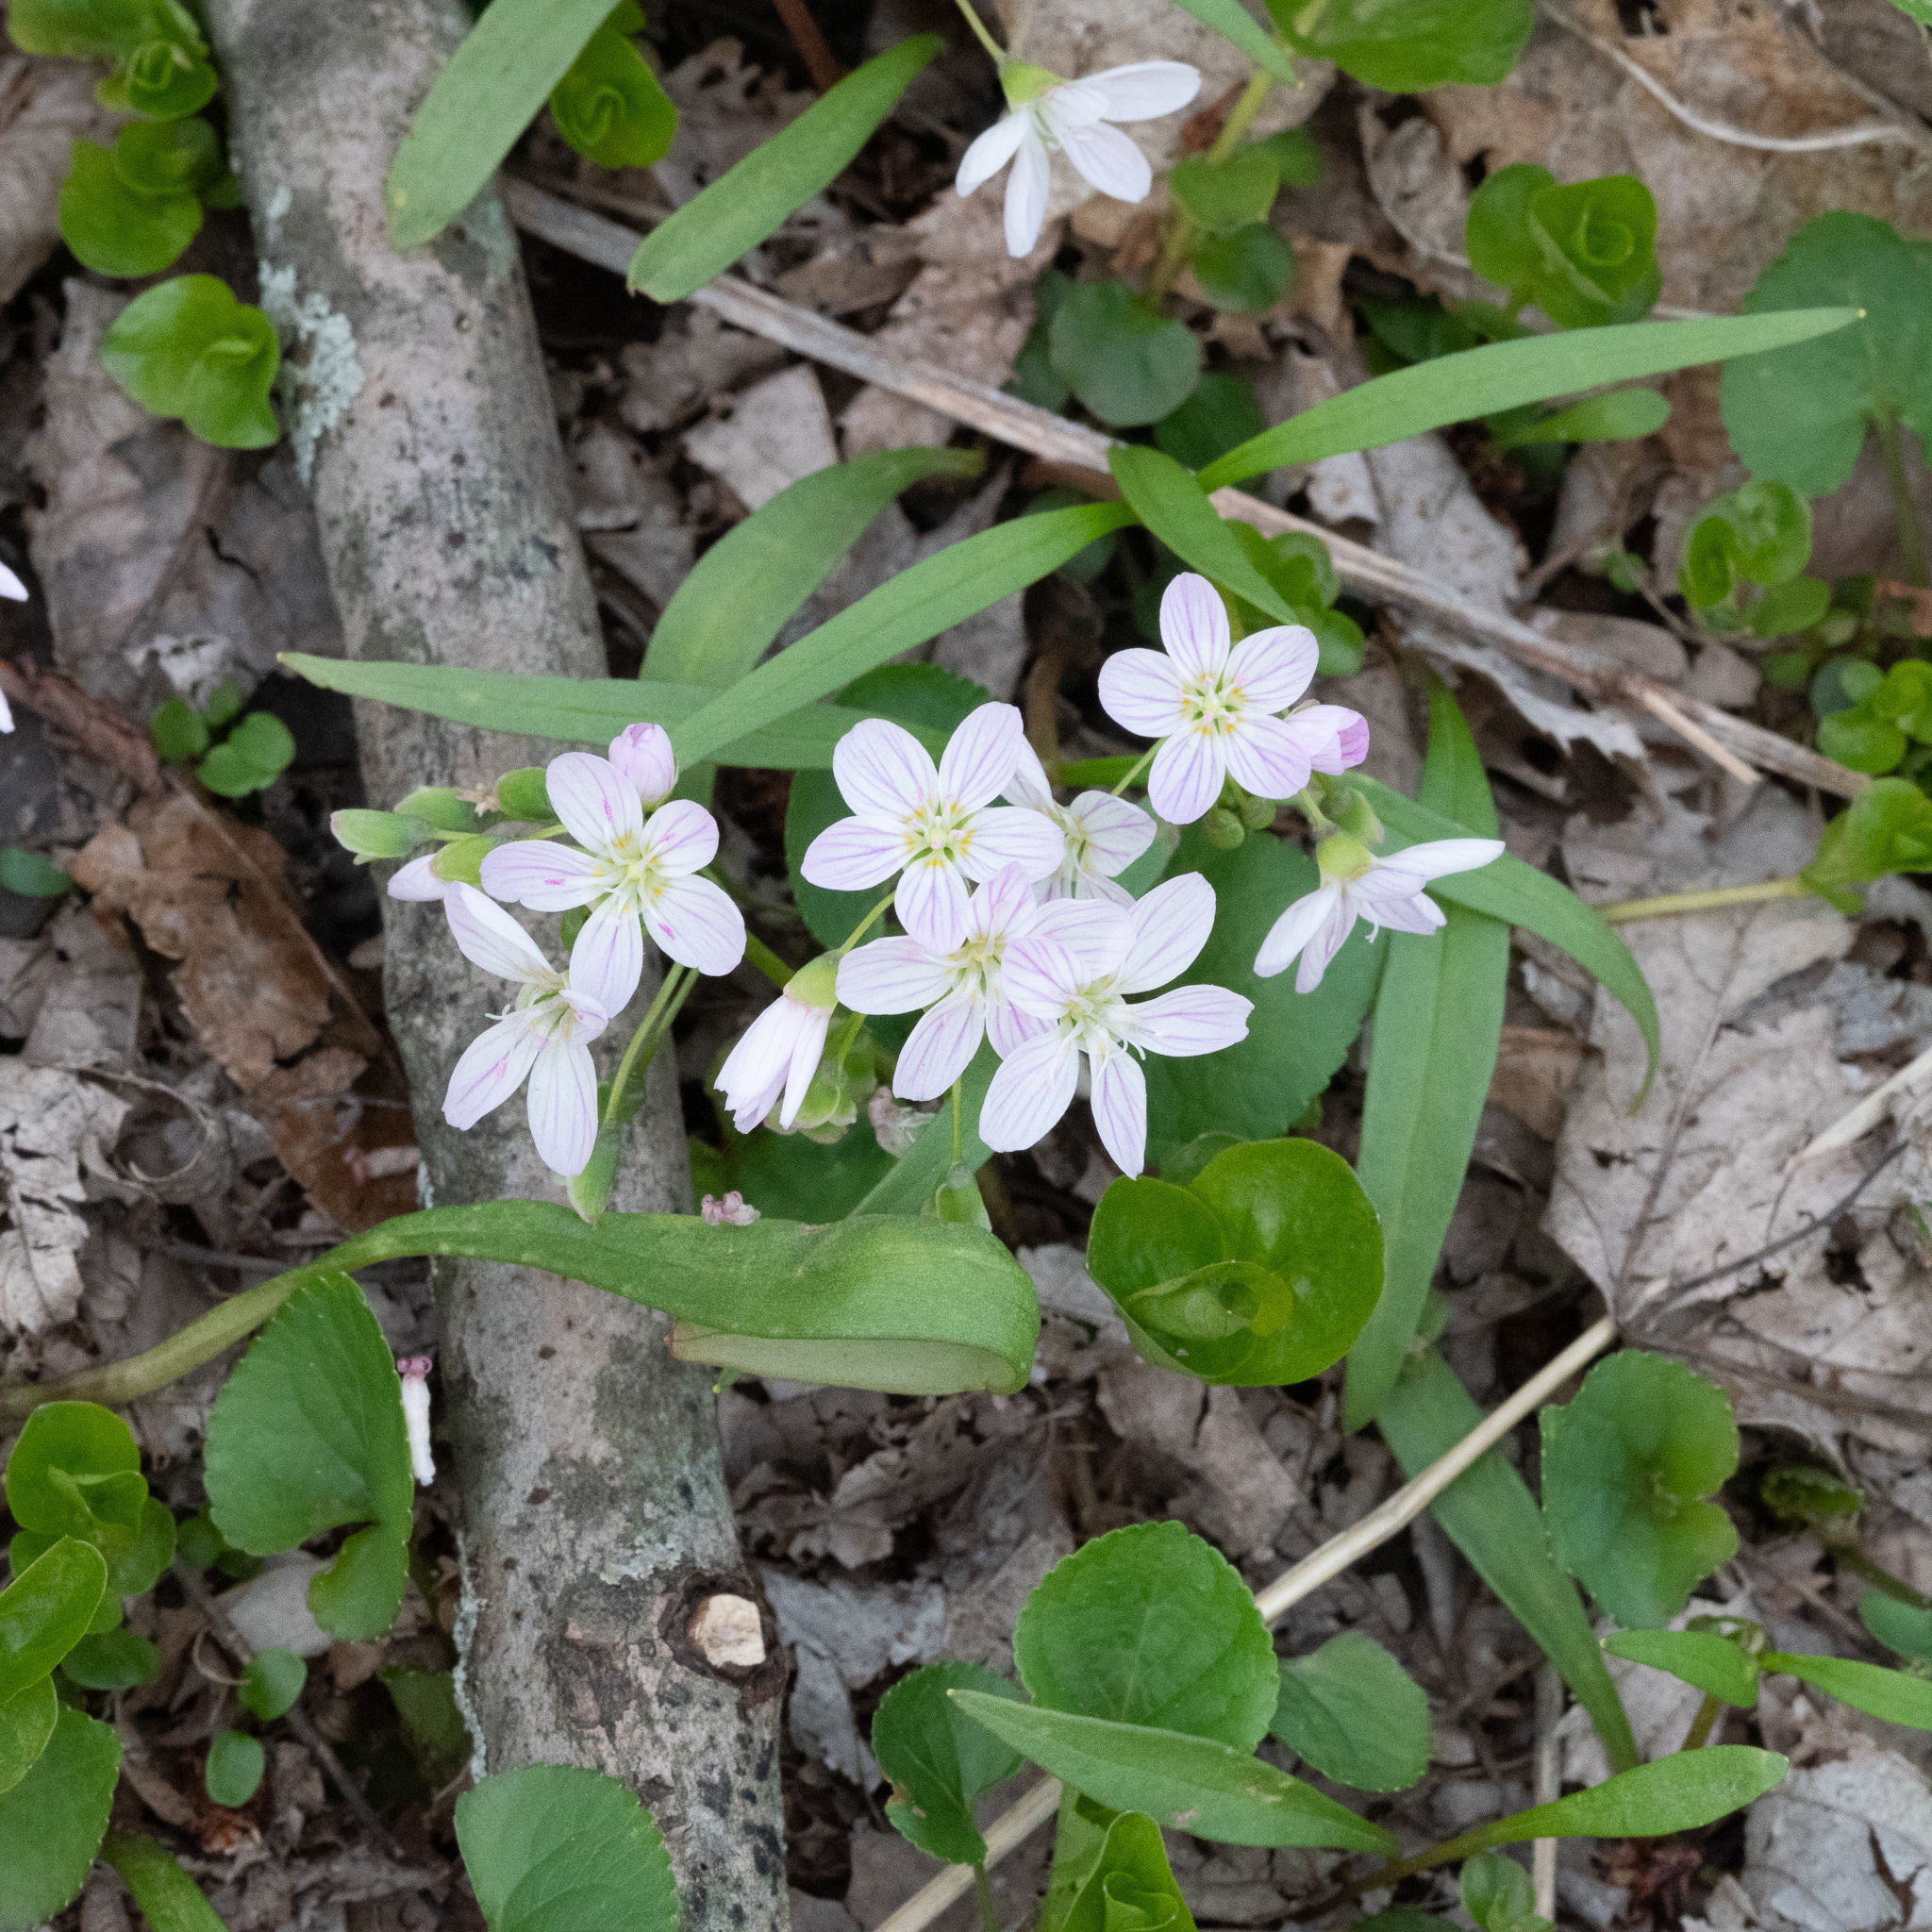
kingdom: Plantae
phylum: Tracheophyta
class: Magnoliopsida
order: Caryophyllales
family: Montiaceae
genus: Claytonia
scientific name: Claytonia virginica
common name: Virginia springbeauty
